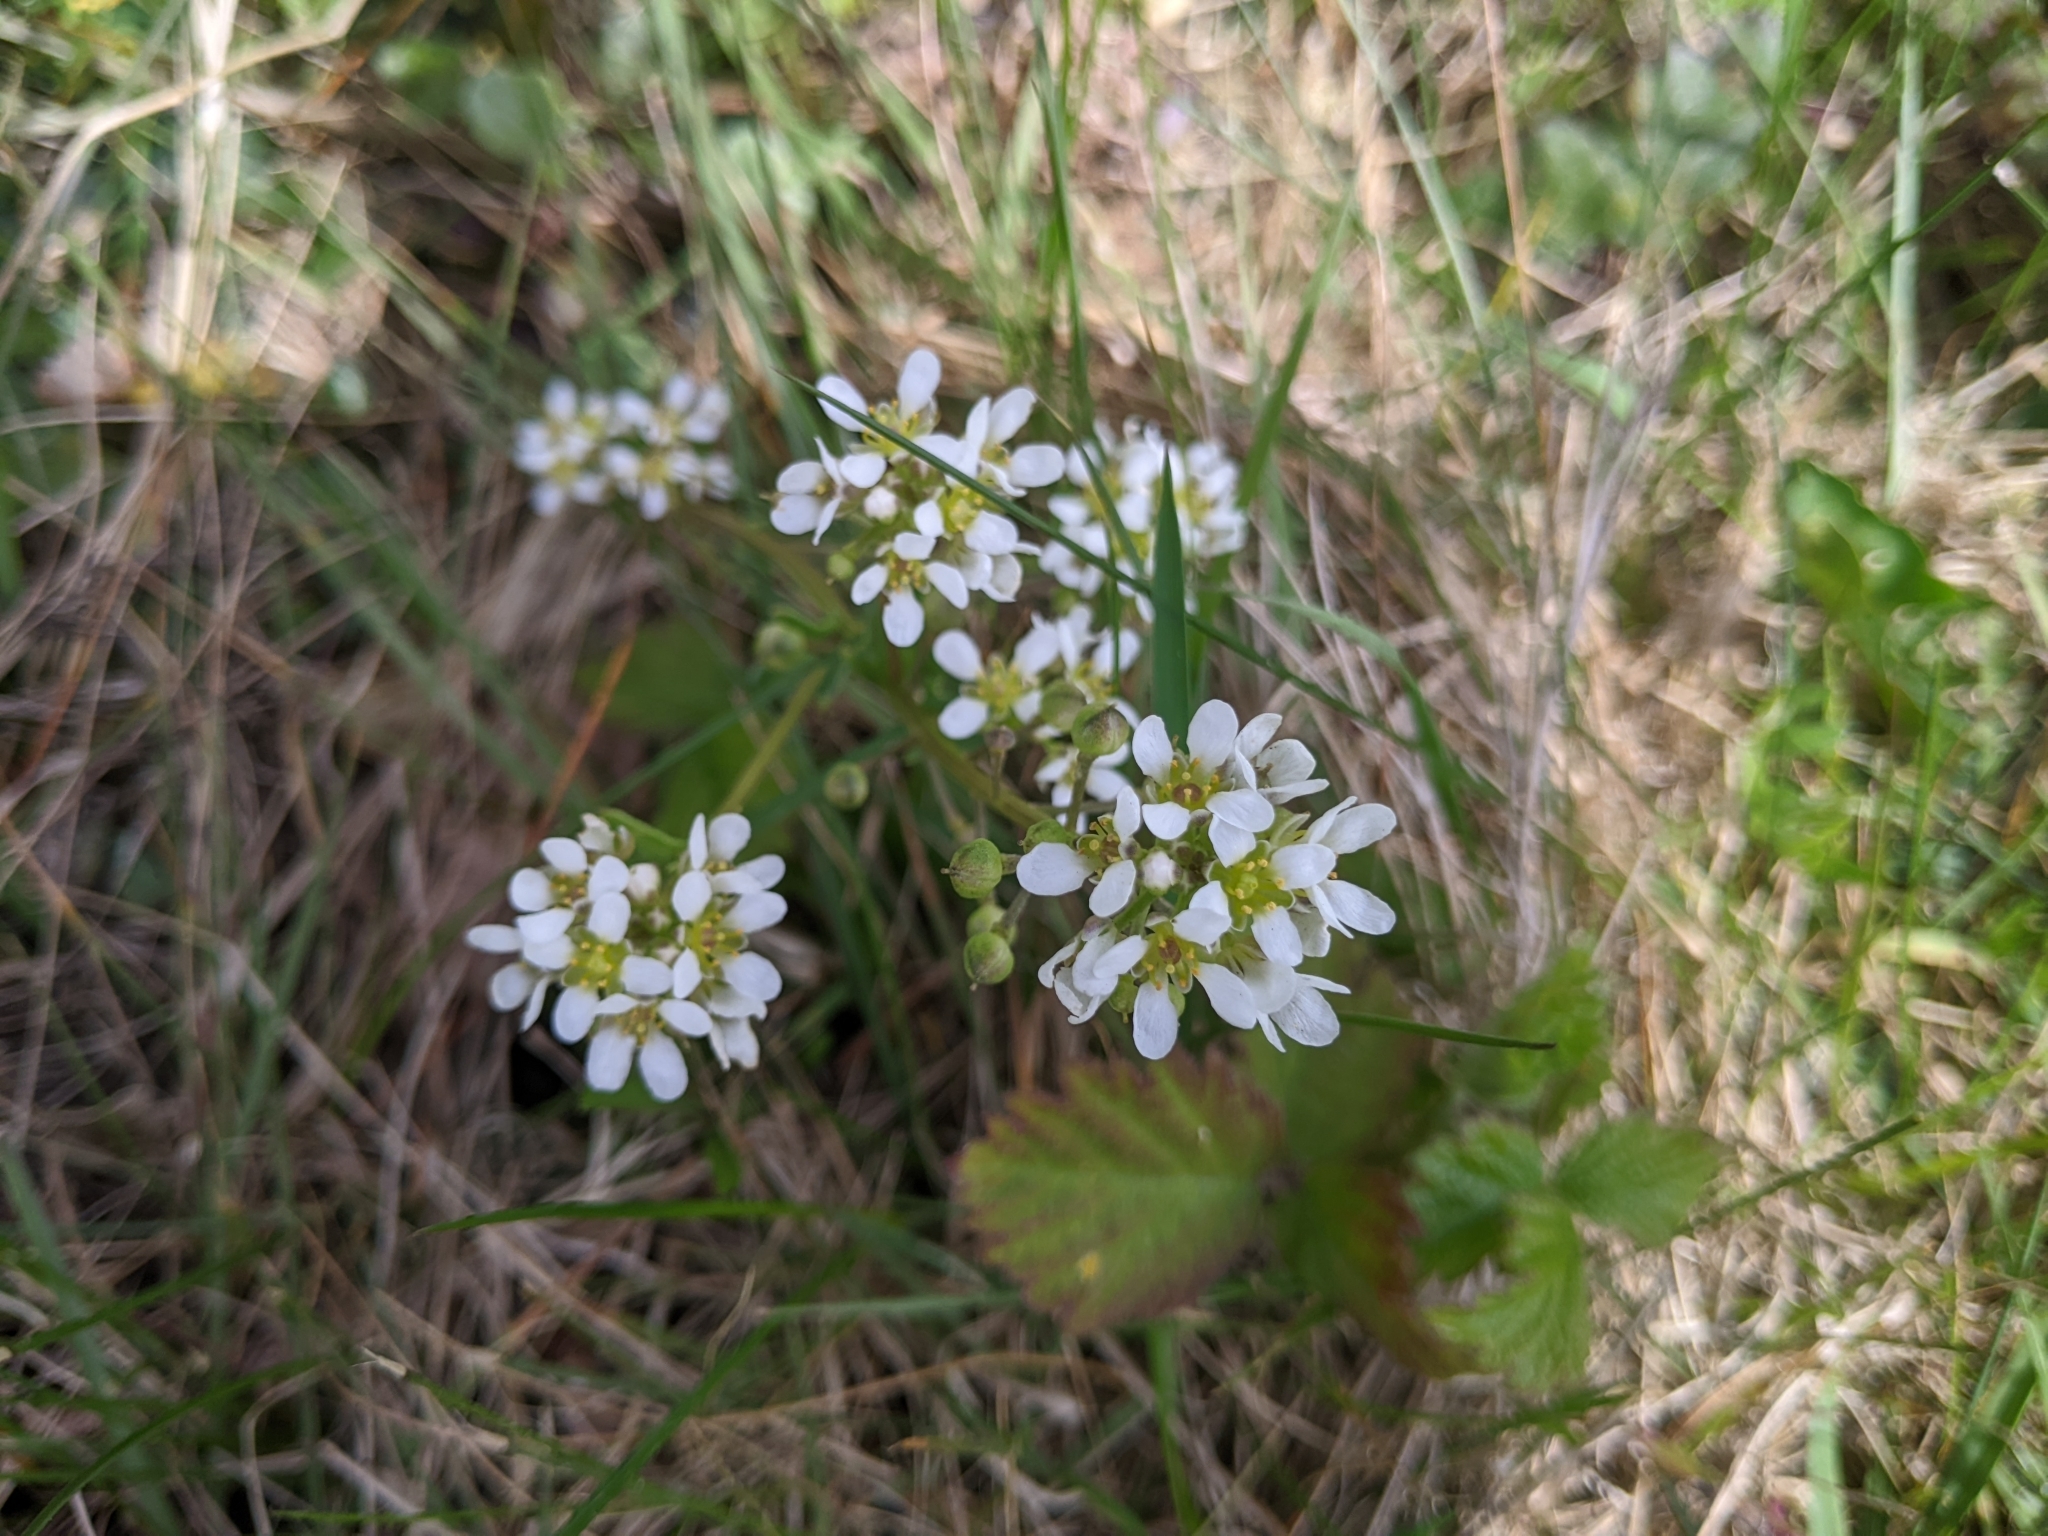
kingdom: Plantae
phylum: Tracheophyta
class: Magnoliopsida
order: Brassicales
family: Brassicaceae
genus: Calepina
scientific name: Calepina irregularis
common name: White ballmustard
